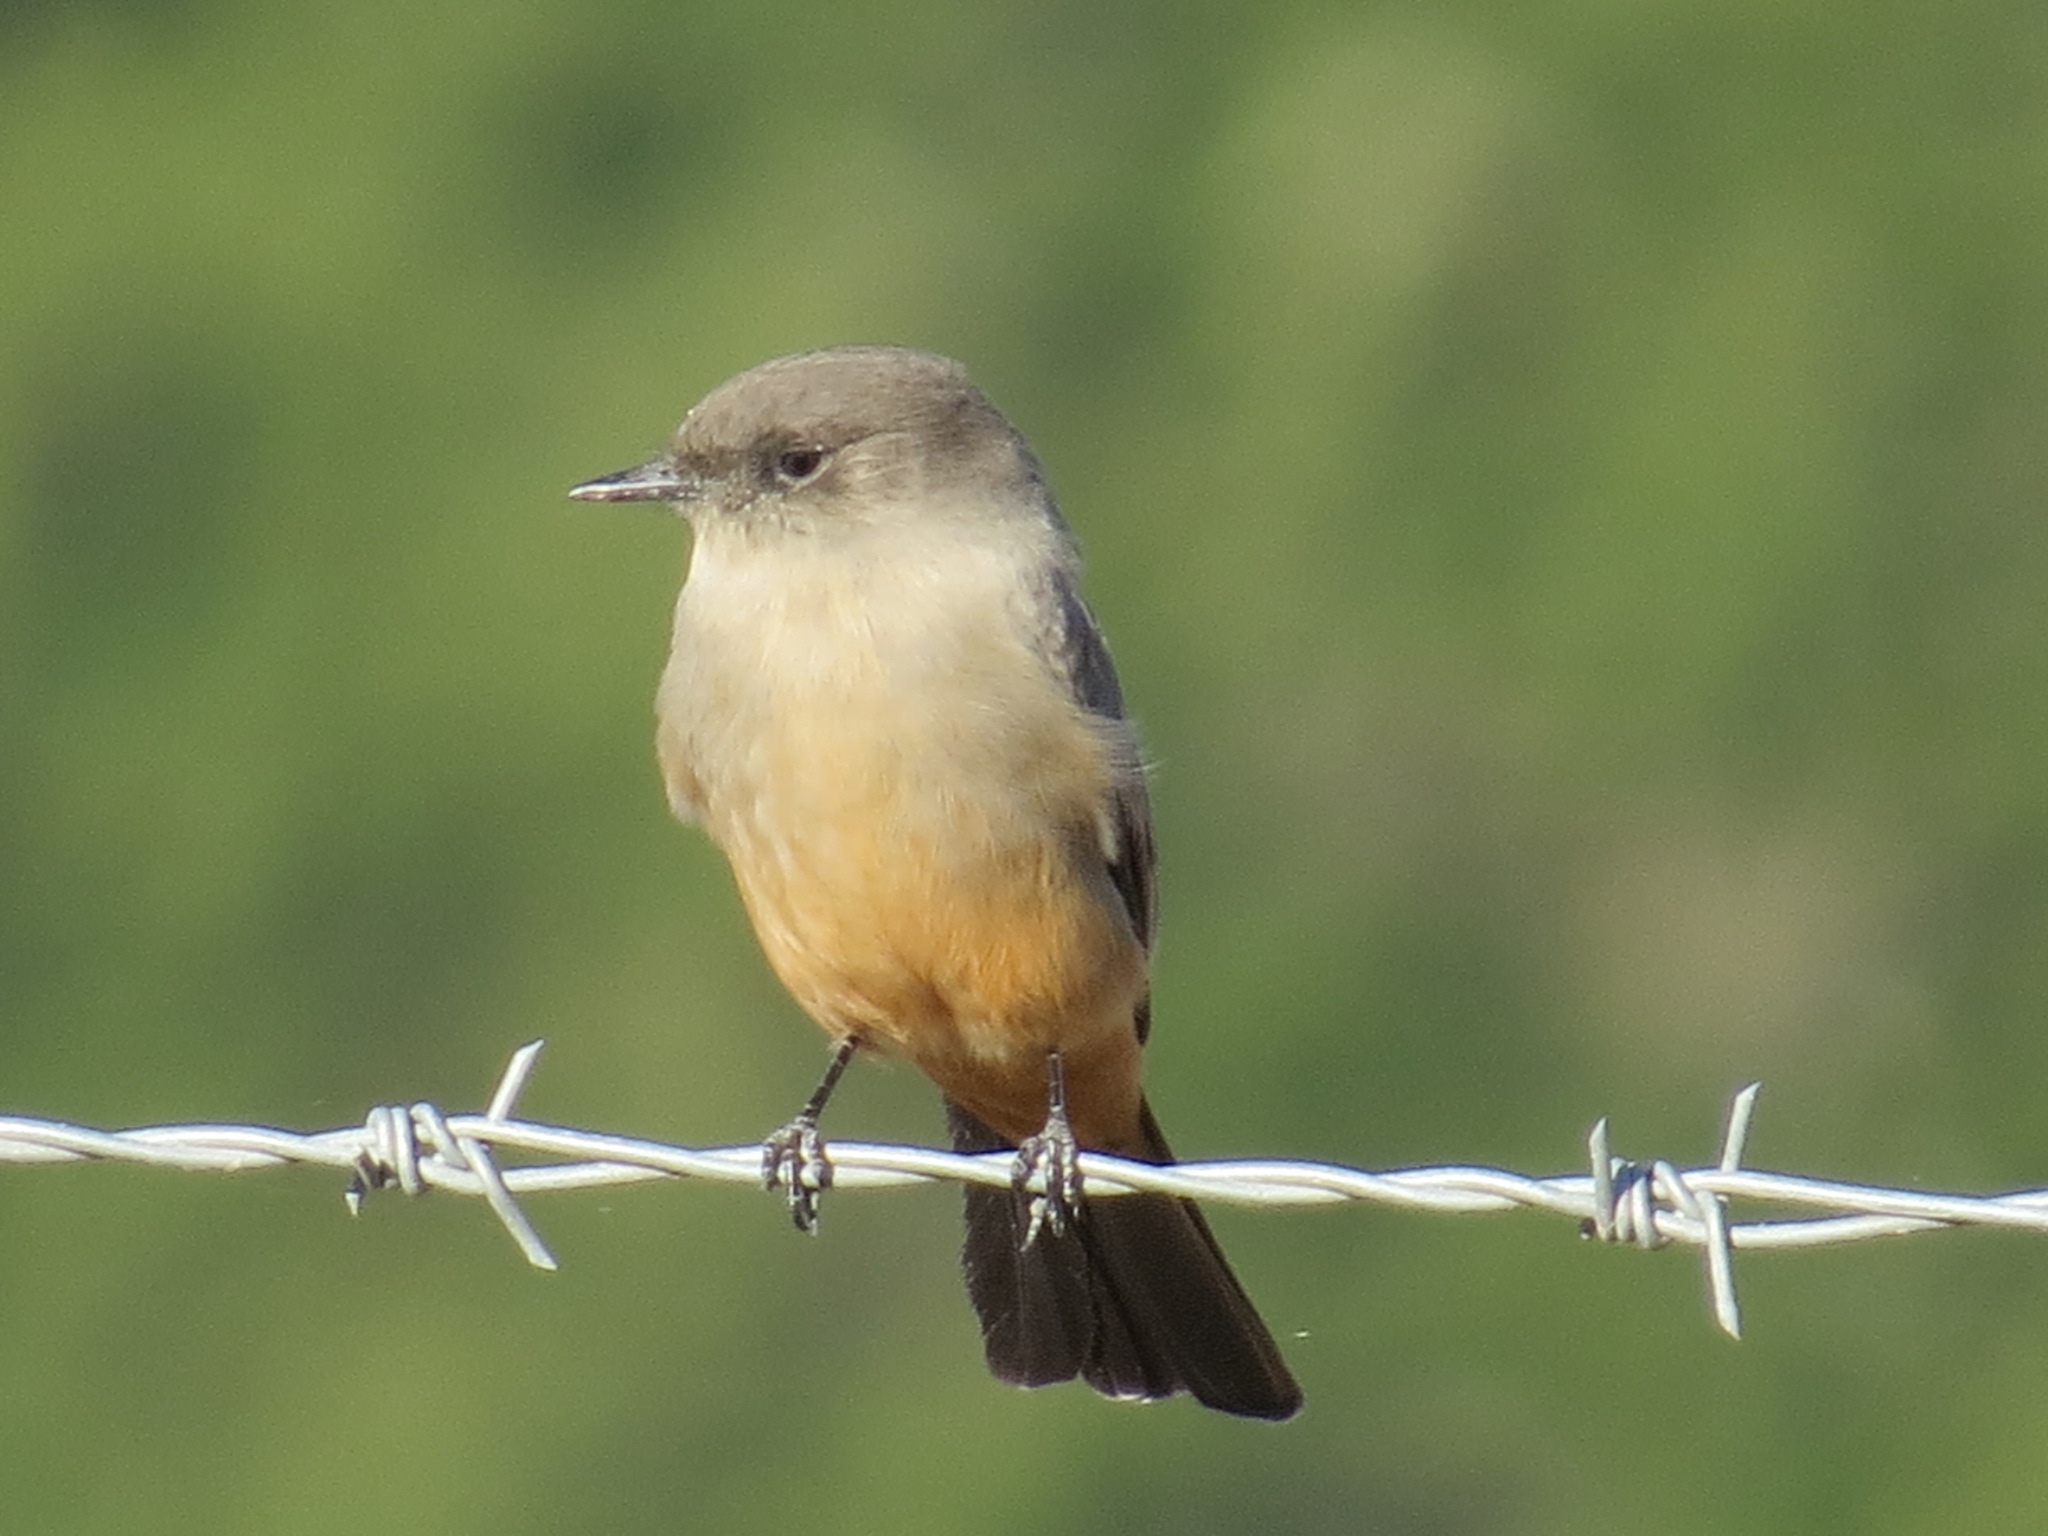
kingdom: Animalia
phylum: Chordata
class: Aves
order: Passeriformes
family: Tyrannidae
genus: Sayornis
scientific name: Sayornis saya
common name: Say's phoebe
